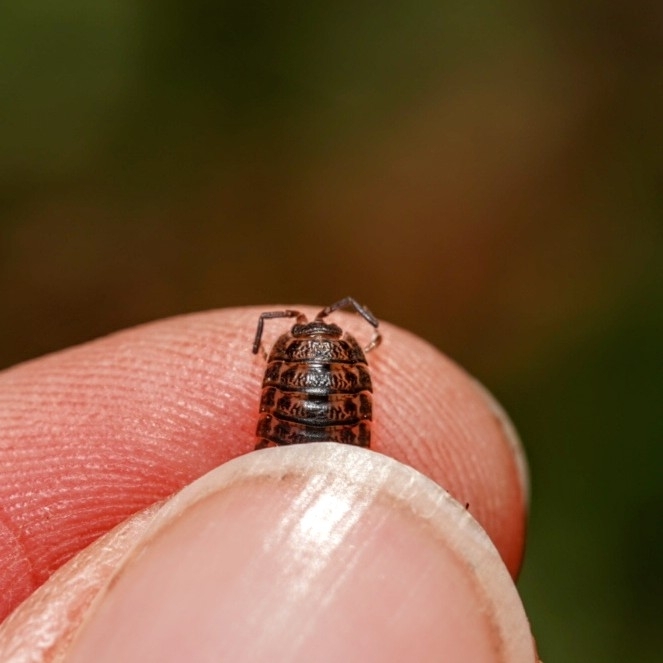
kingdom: Animalia
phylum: Arthropoda
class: Malacostraca
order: Isopoda
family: Trachelipodidae
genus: Trachelipus
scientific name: Trachelipus rathkii
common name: Isopod
